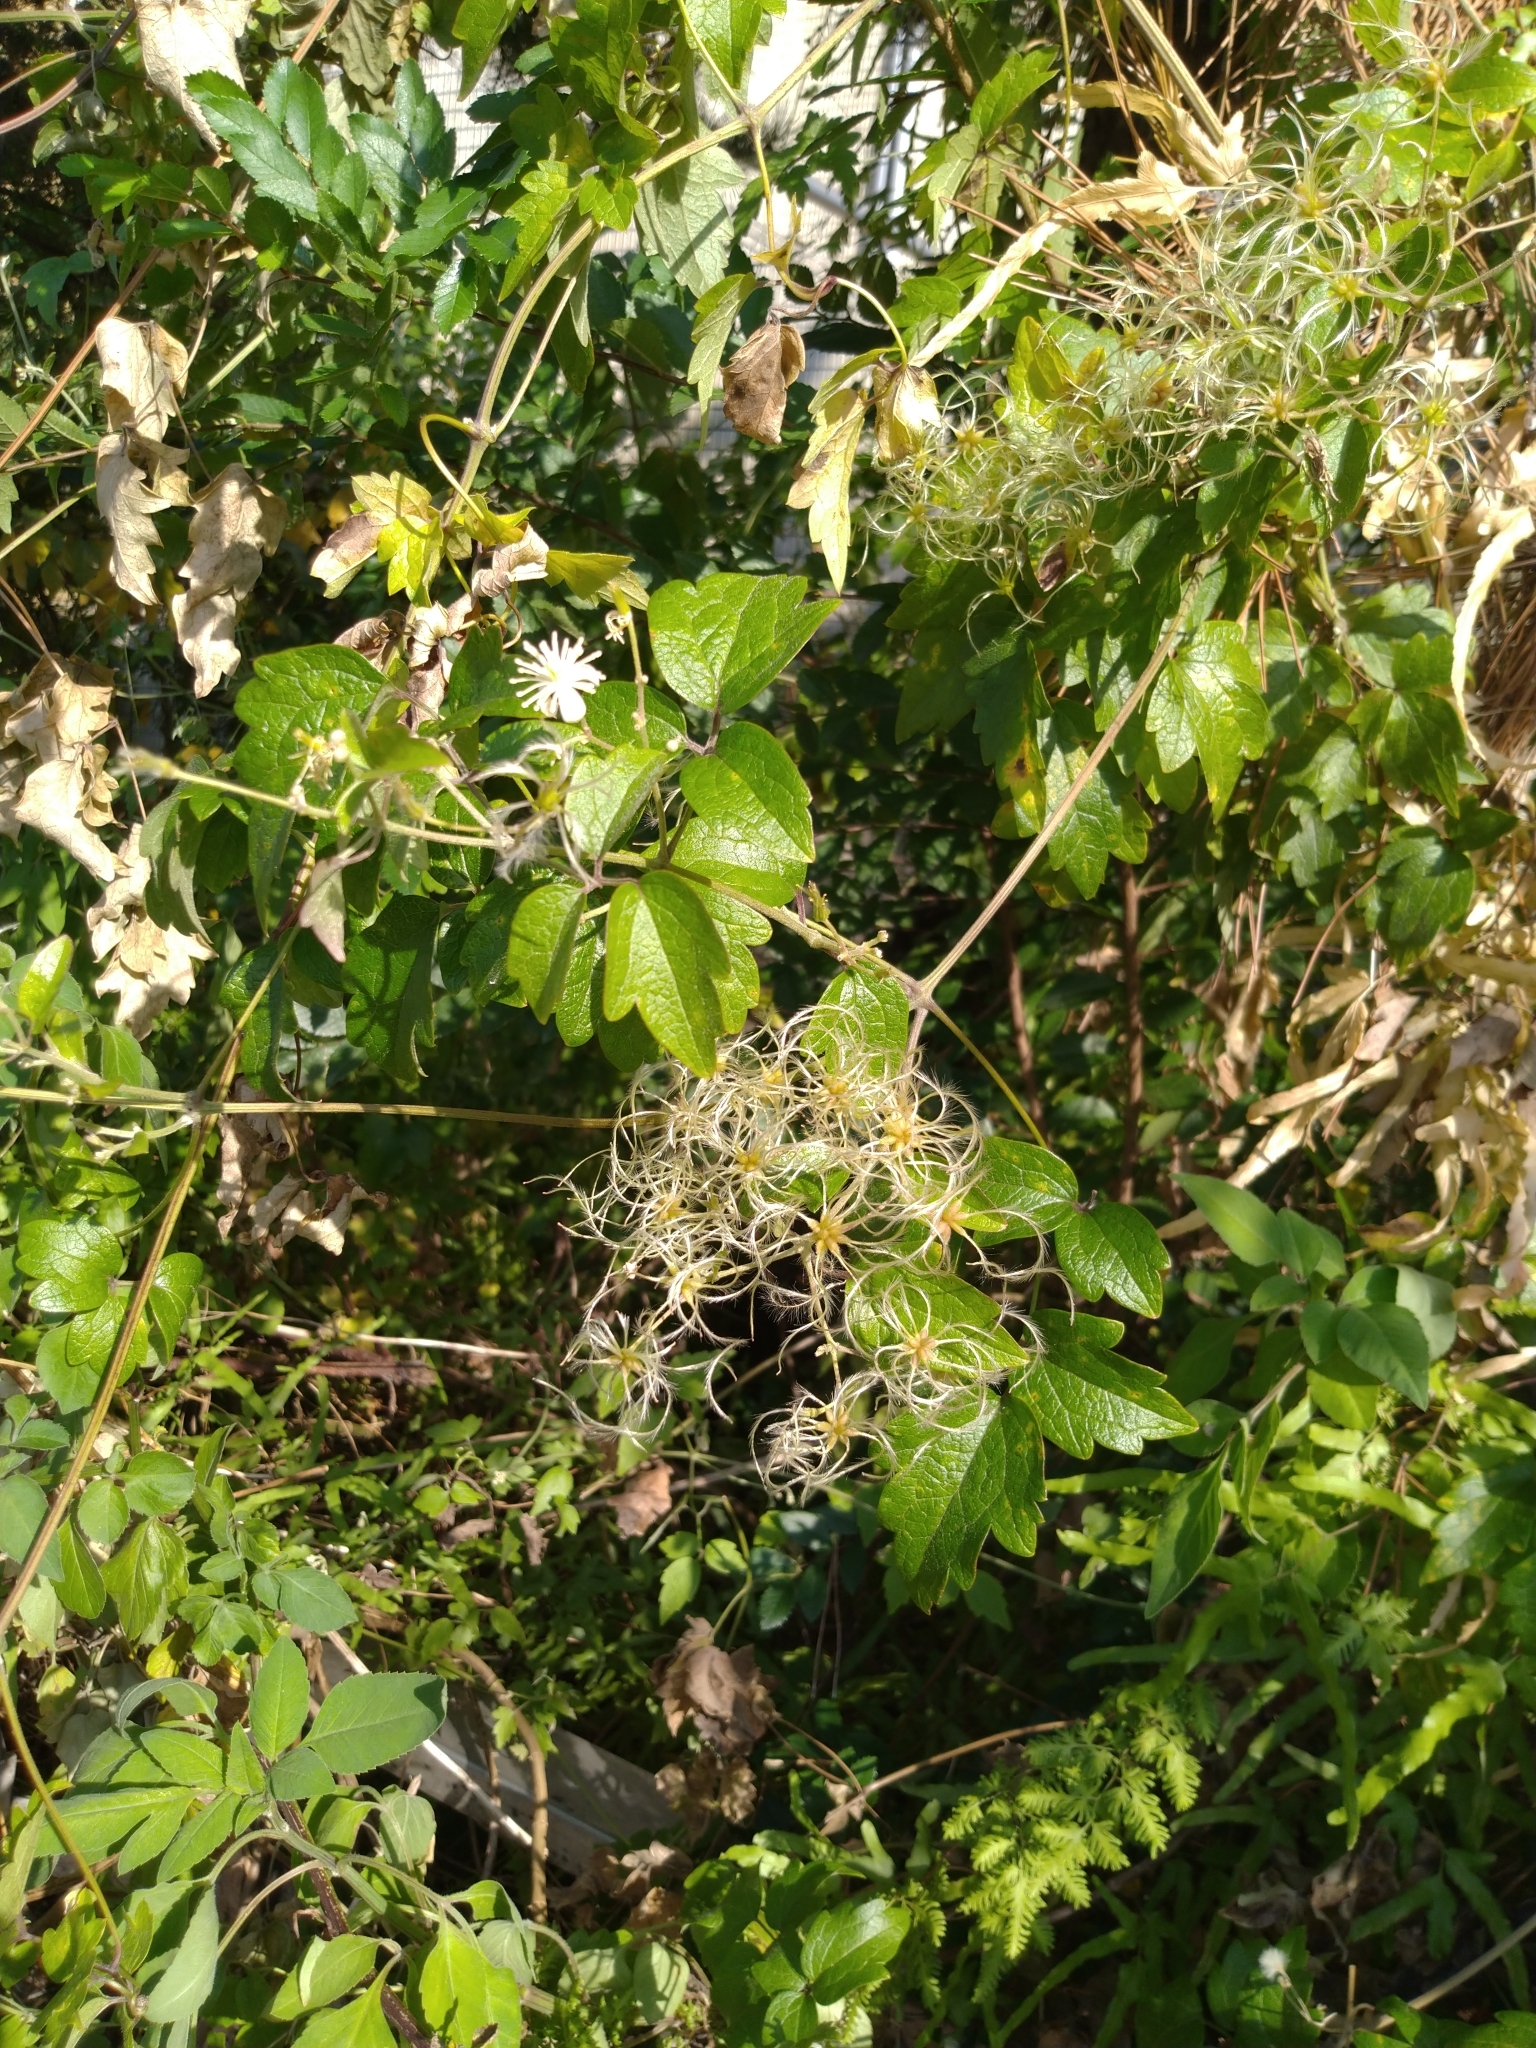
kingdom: Plantae
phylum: Tracheophyta
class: Magnoliopsida
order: Ranunculales
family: Ranunculaceae
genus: Clematis
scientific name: Clematis grata
